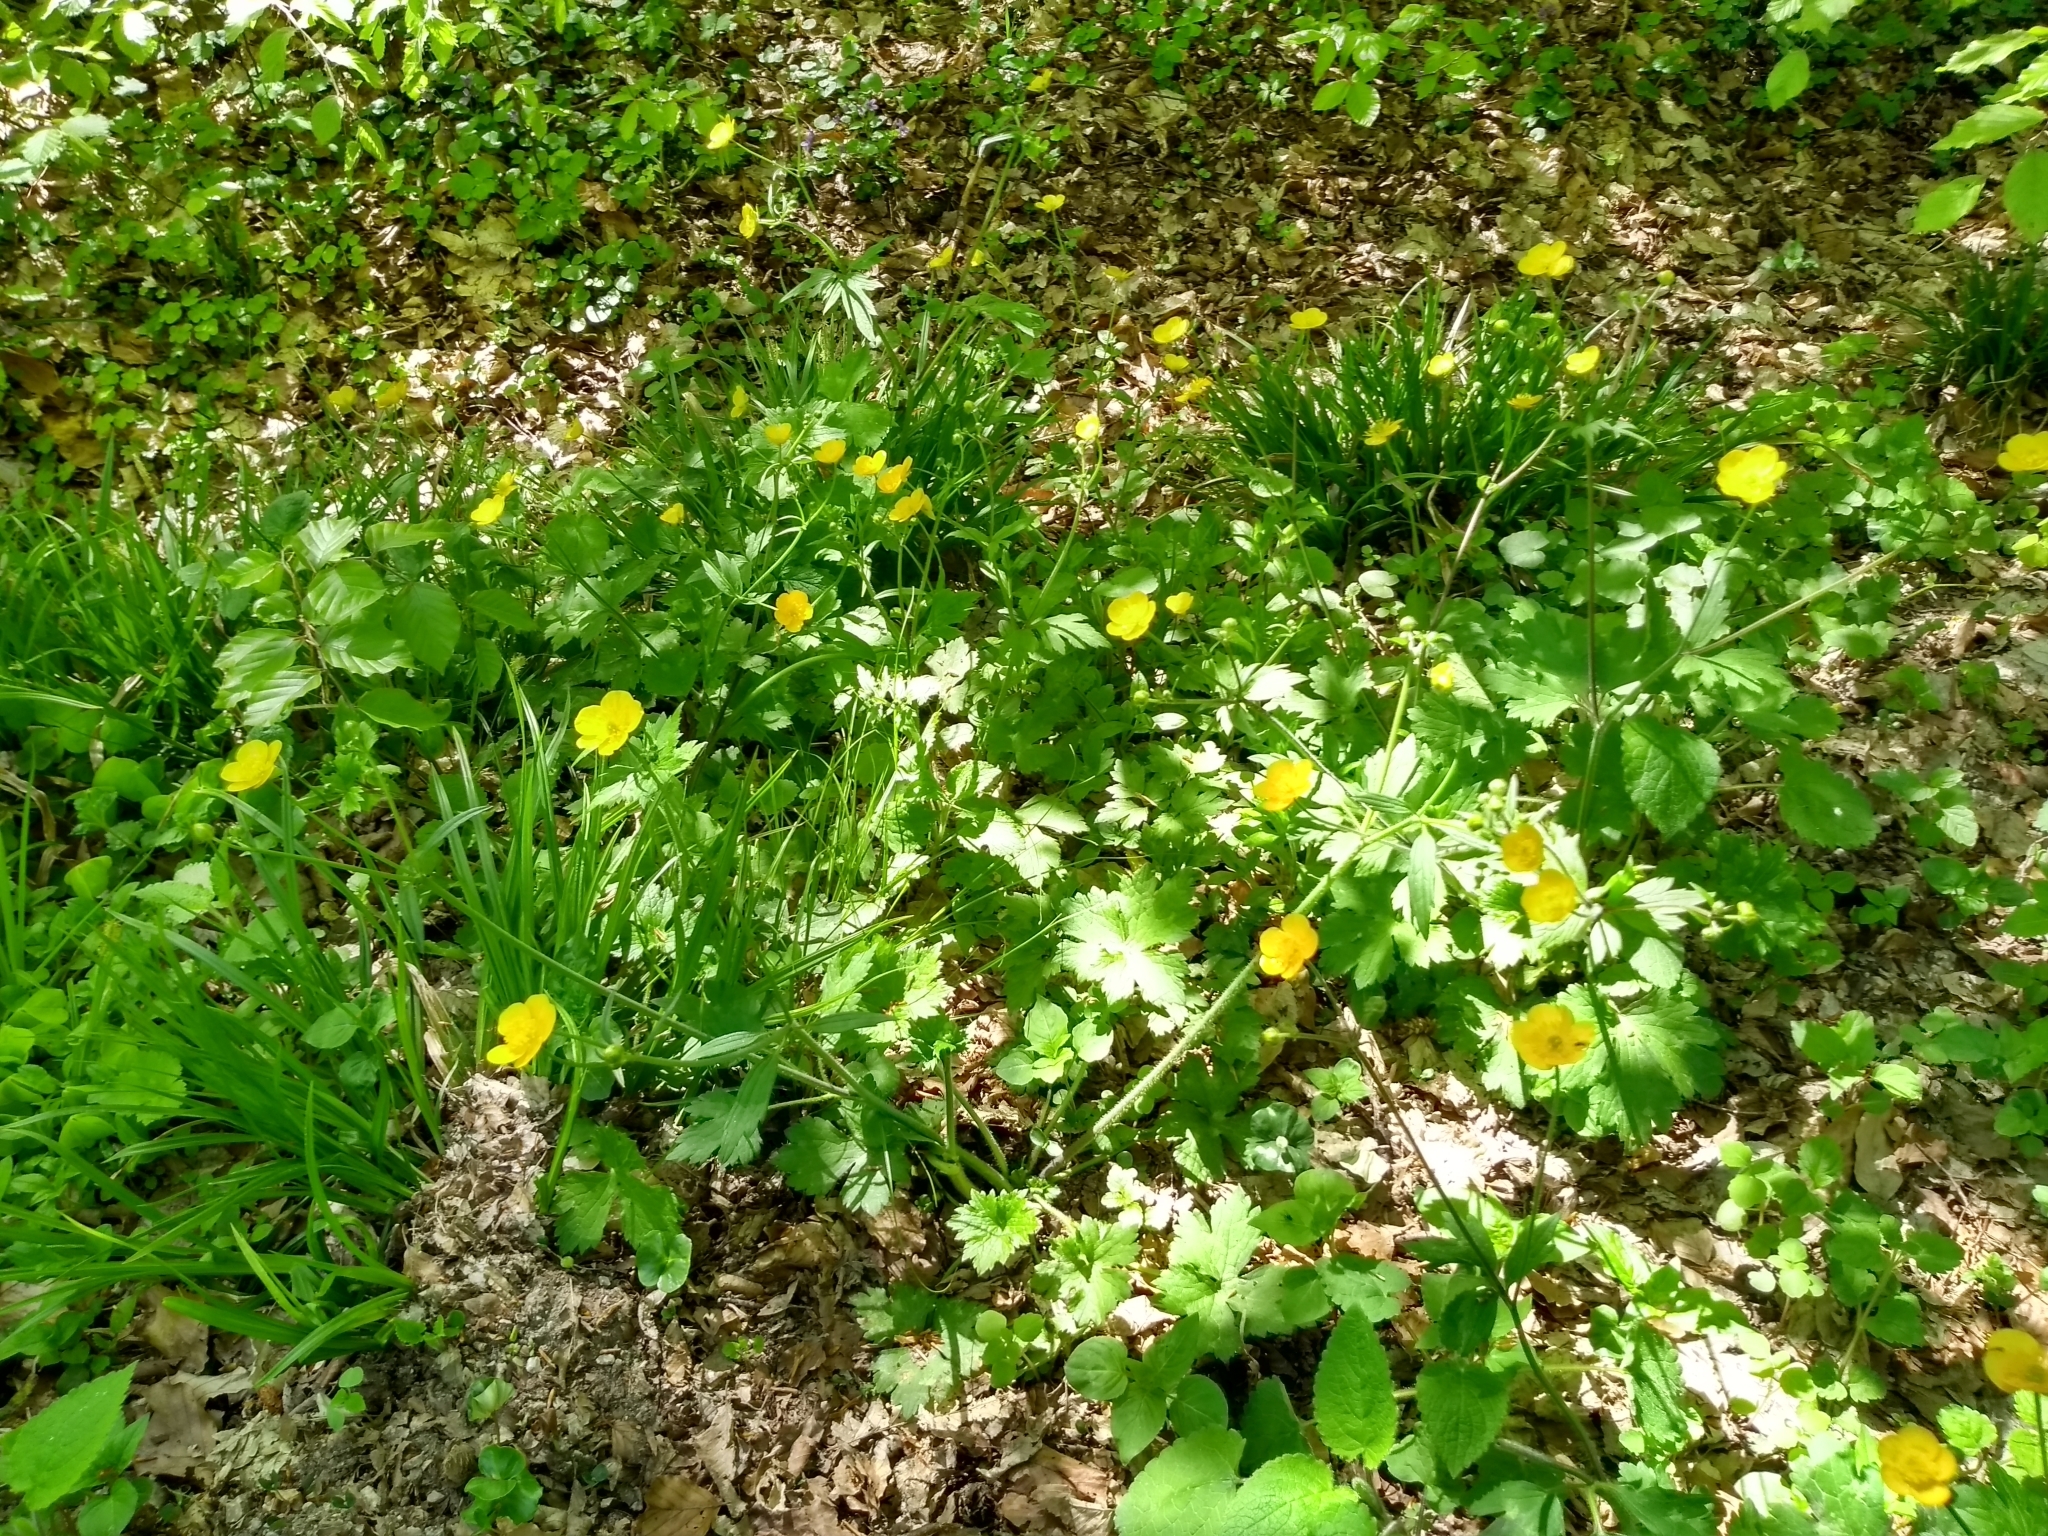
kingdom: Plantae
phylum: Tracheophyta
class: Magnoliopsida
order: Ranunculales
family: Ranunculaceae
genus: Ranunculus
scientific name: Ranunculus lanuginosus
